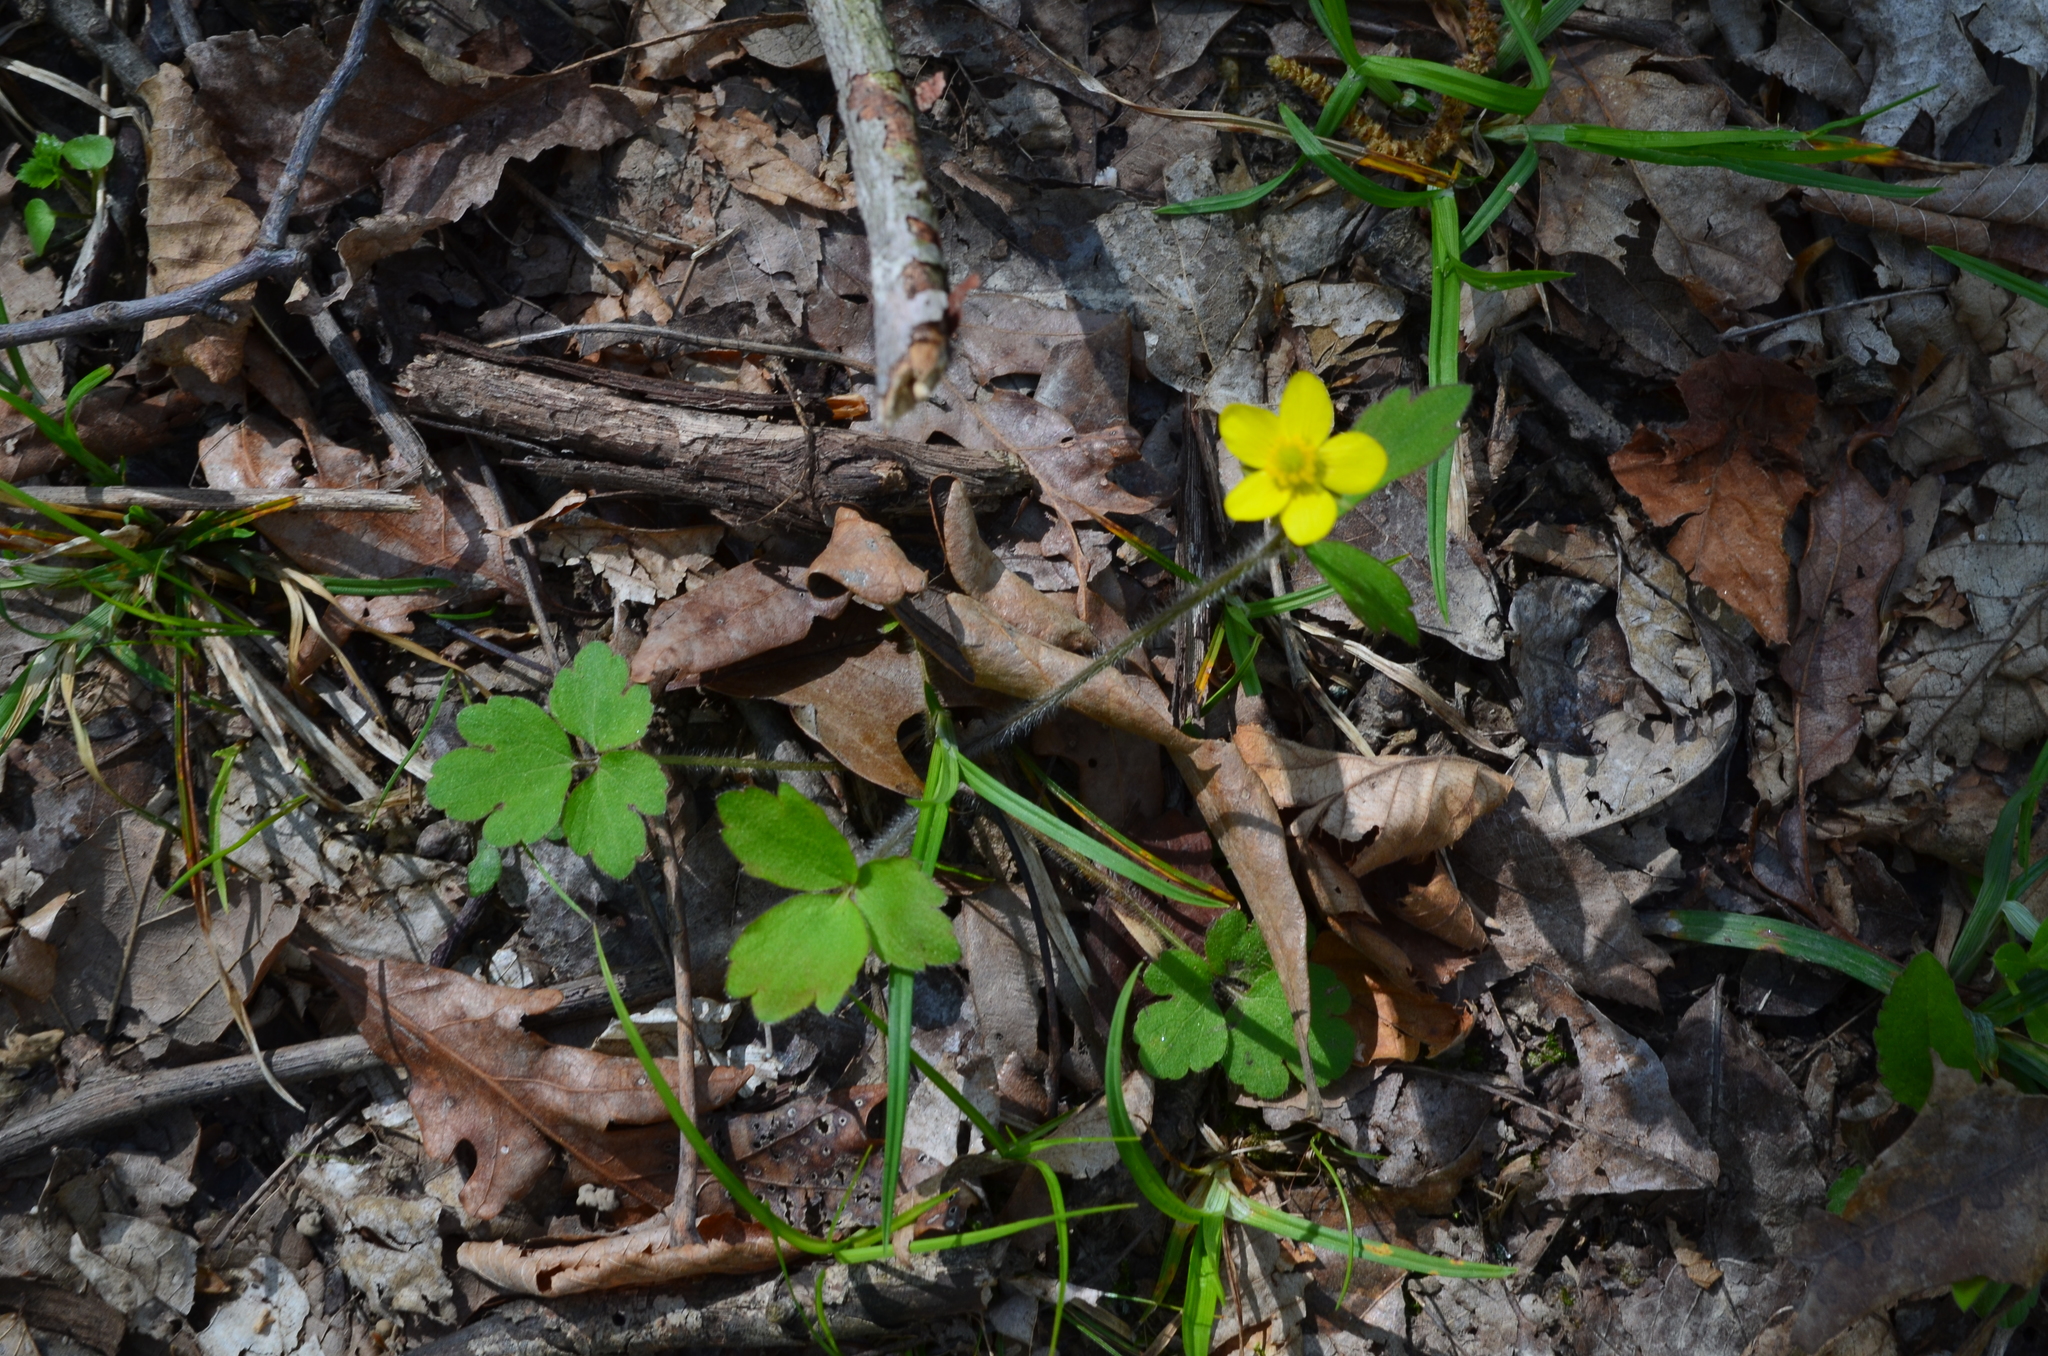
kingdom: Plantae
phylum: Tracheophyta
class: Magnoliopsida
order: Ranunculales
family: Ranunculaceae
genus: Ranunculus
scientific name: Ranunculus hispidus
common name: Bristly buttercup
